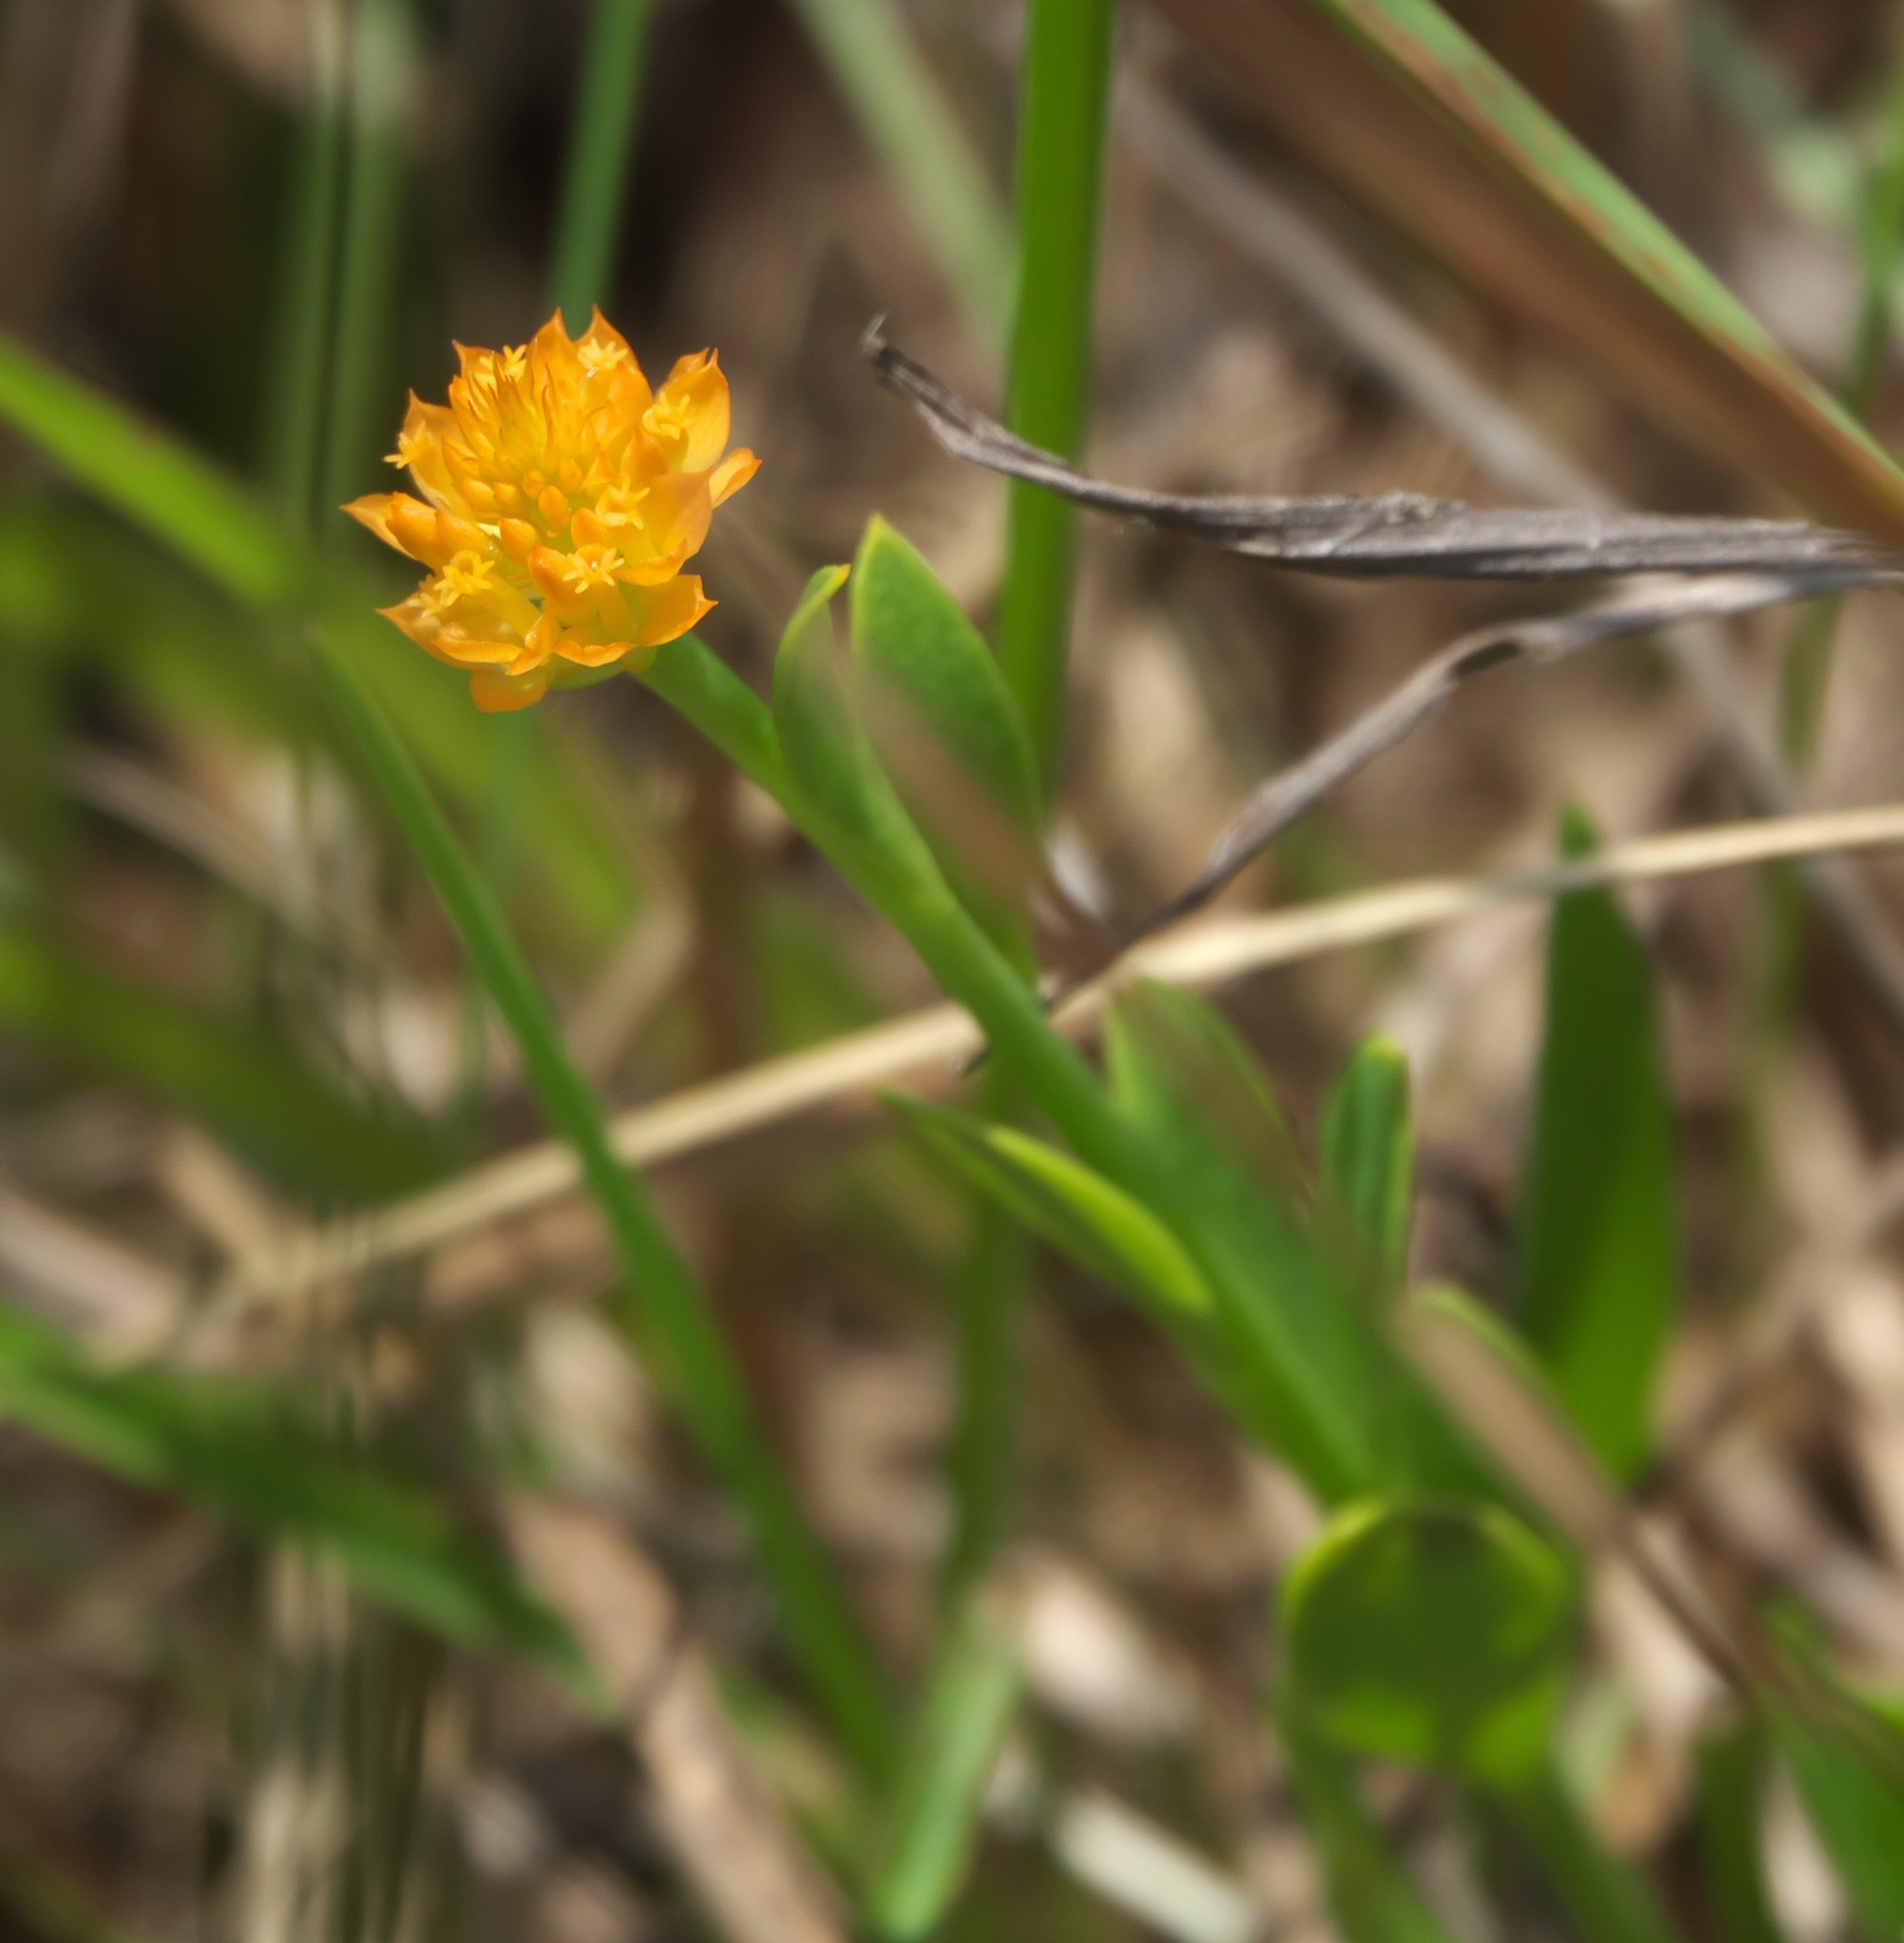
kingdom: Plantae
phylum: Tracheophyta
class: Magnoliopsida
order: Fabales
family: Polygalaceae
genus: Polygala
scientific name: Polygala lutea
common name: Orange milkwort
